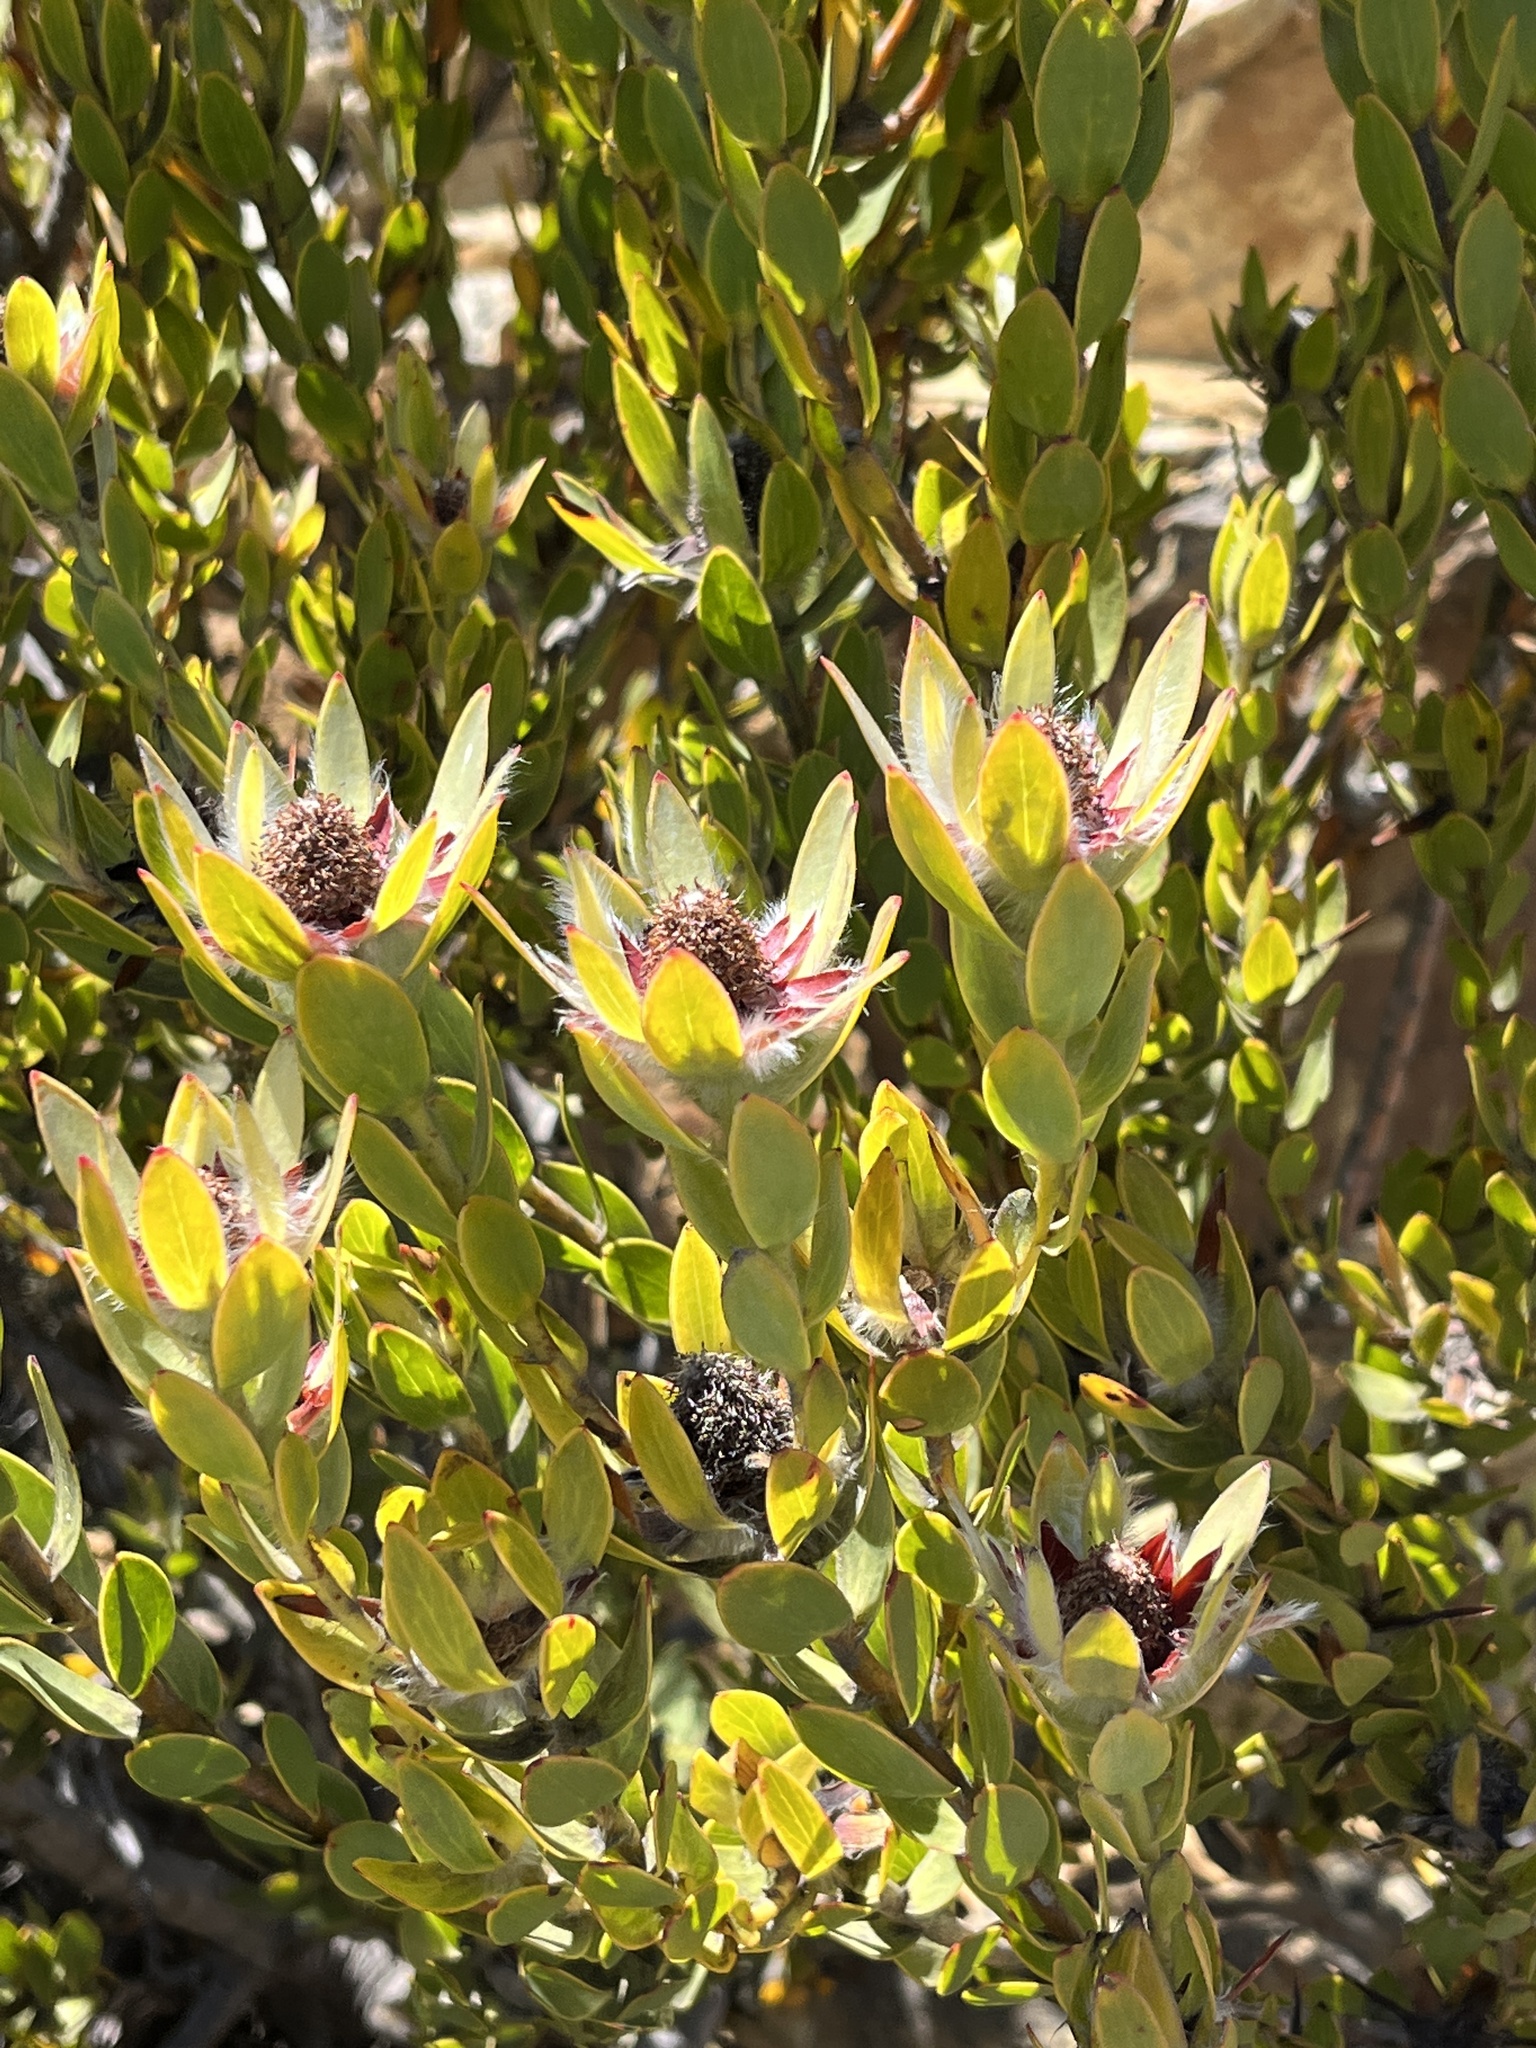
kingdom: Plantae
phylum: Tracheophyta
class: Magnoliopsida
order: Proteales
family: Proteaceae
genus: Leucadendron
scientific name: Leucadendron nervosum
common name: Silky-ruff conebush
